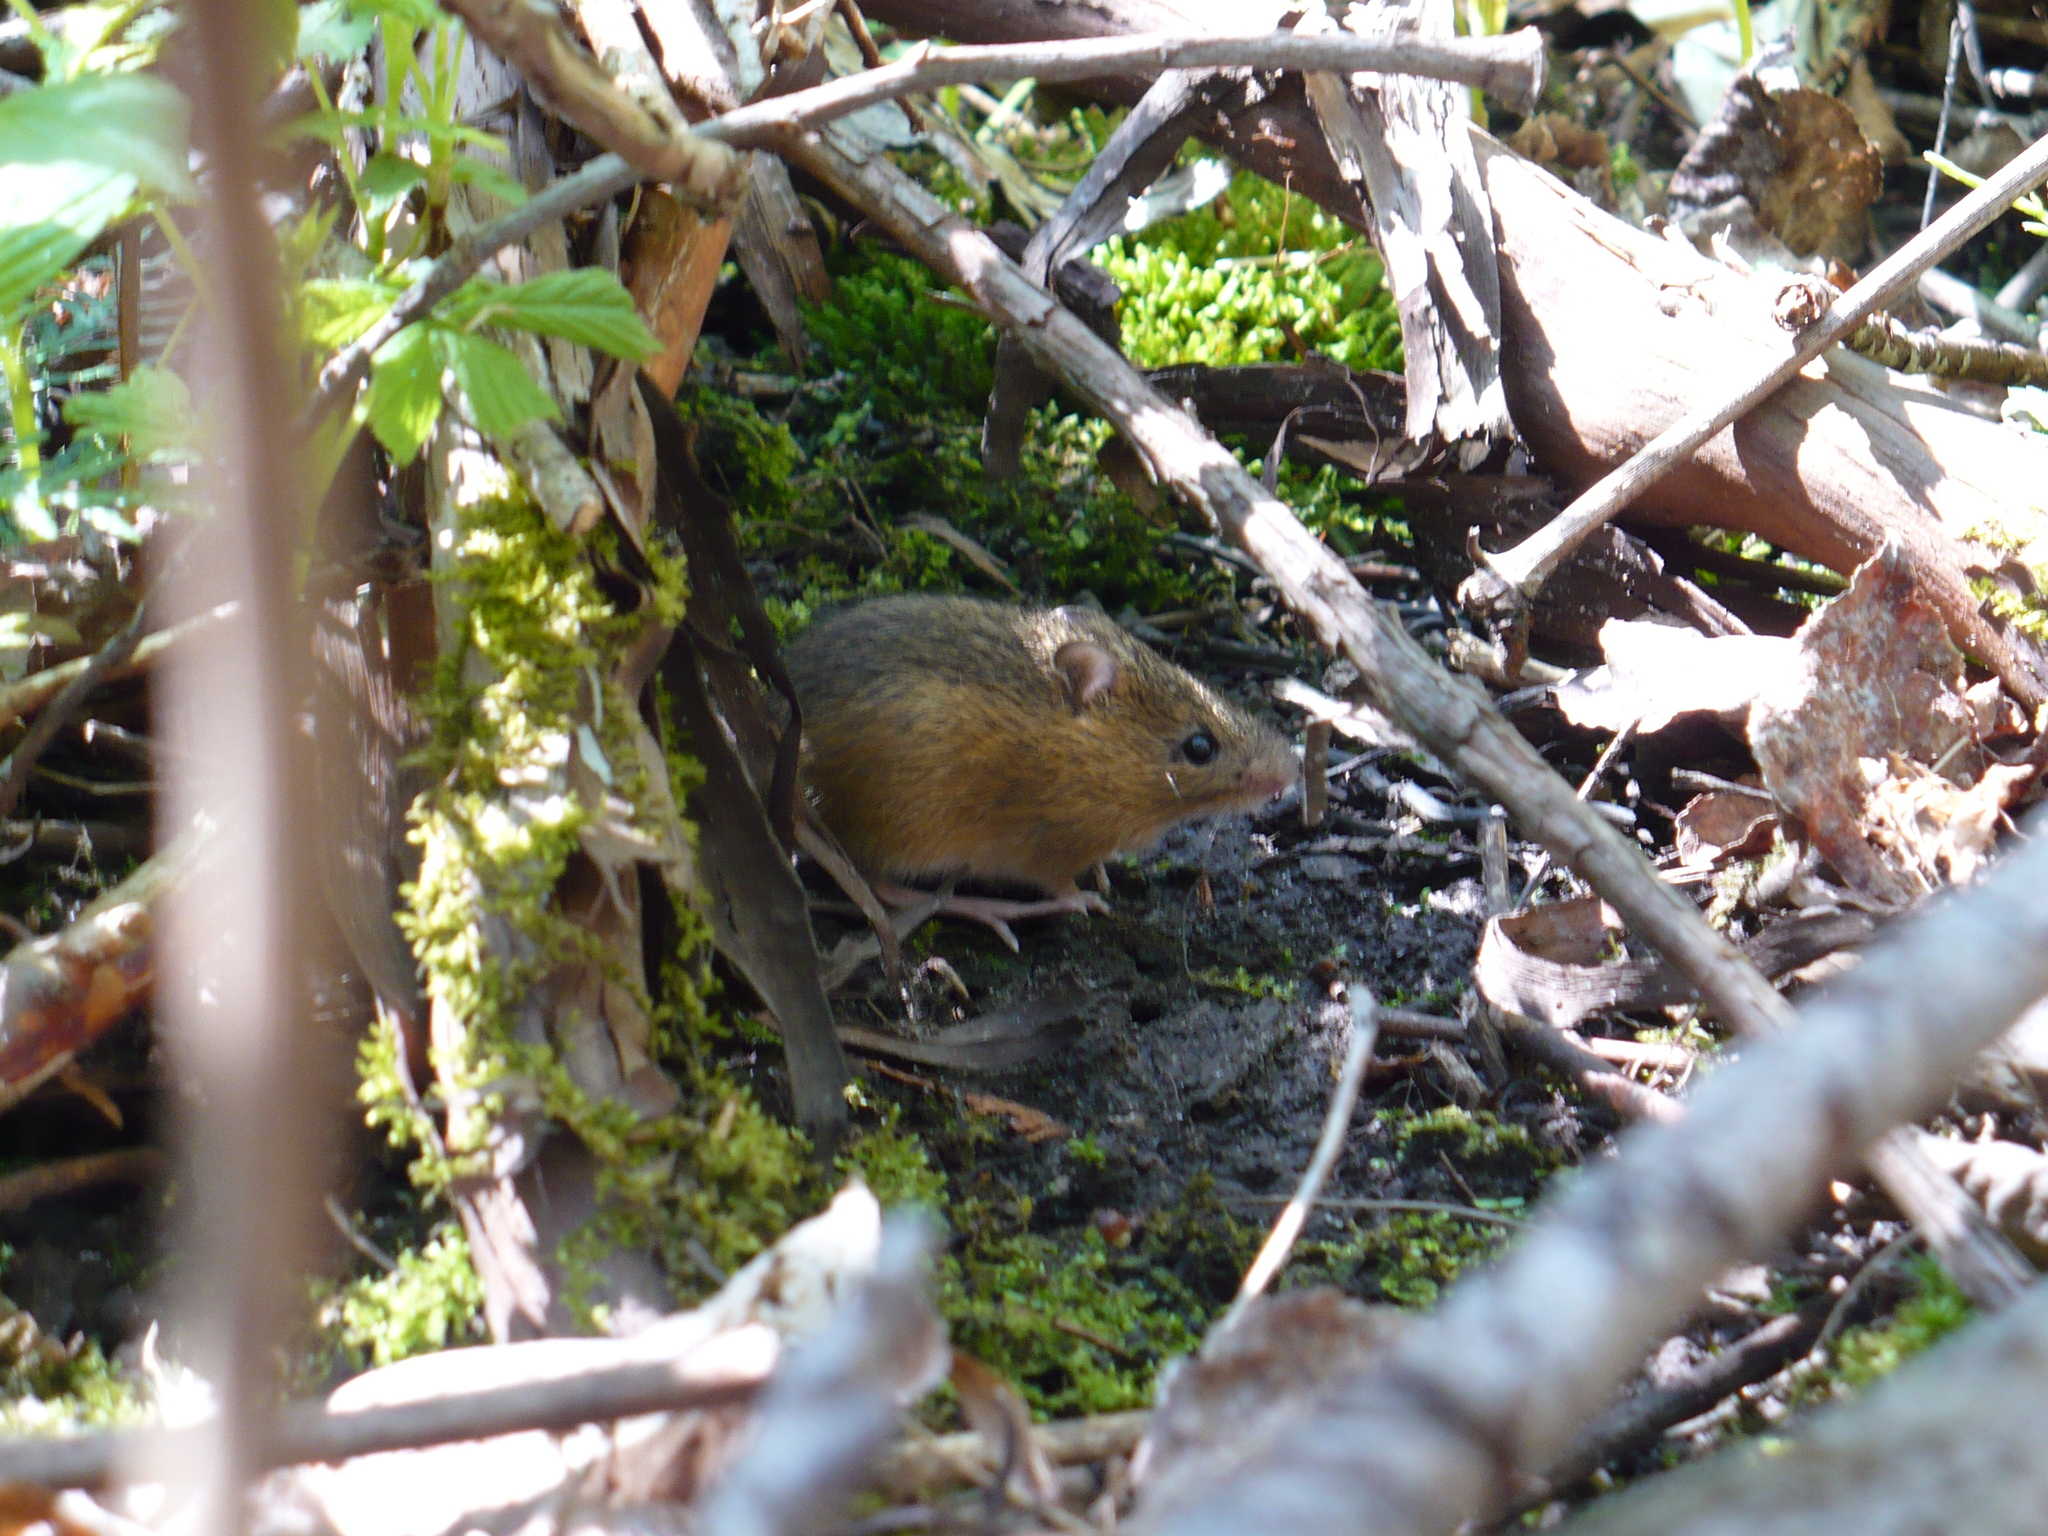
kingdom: Animalia
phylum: Chordata
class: Mammalia
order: Rodentia
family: Dipodidae
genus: Napaeozapus
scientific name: Napaeozapus insignis
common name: Woodland jumping mouse
